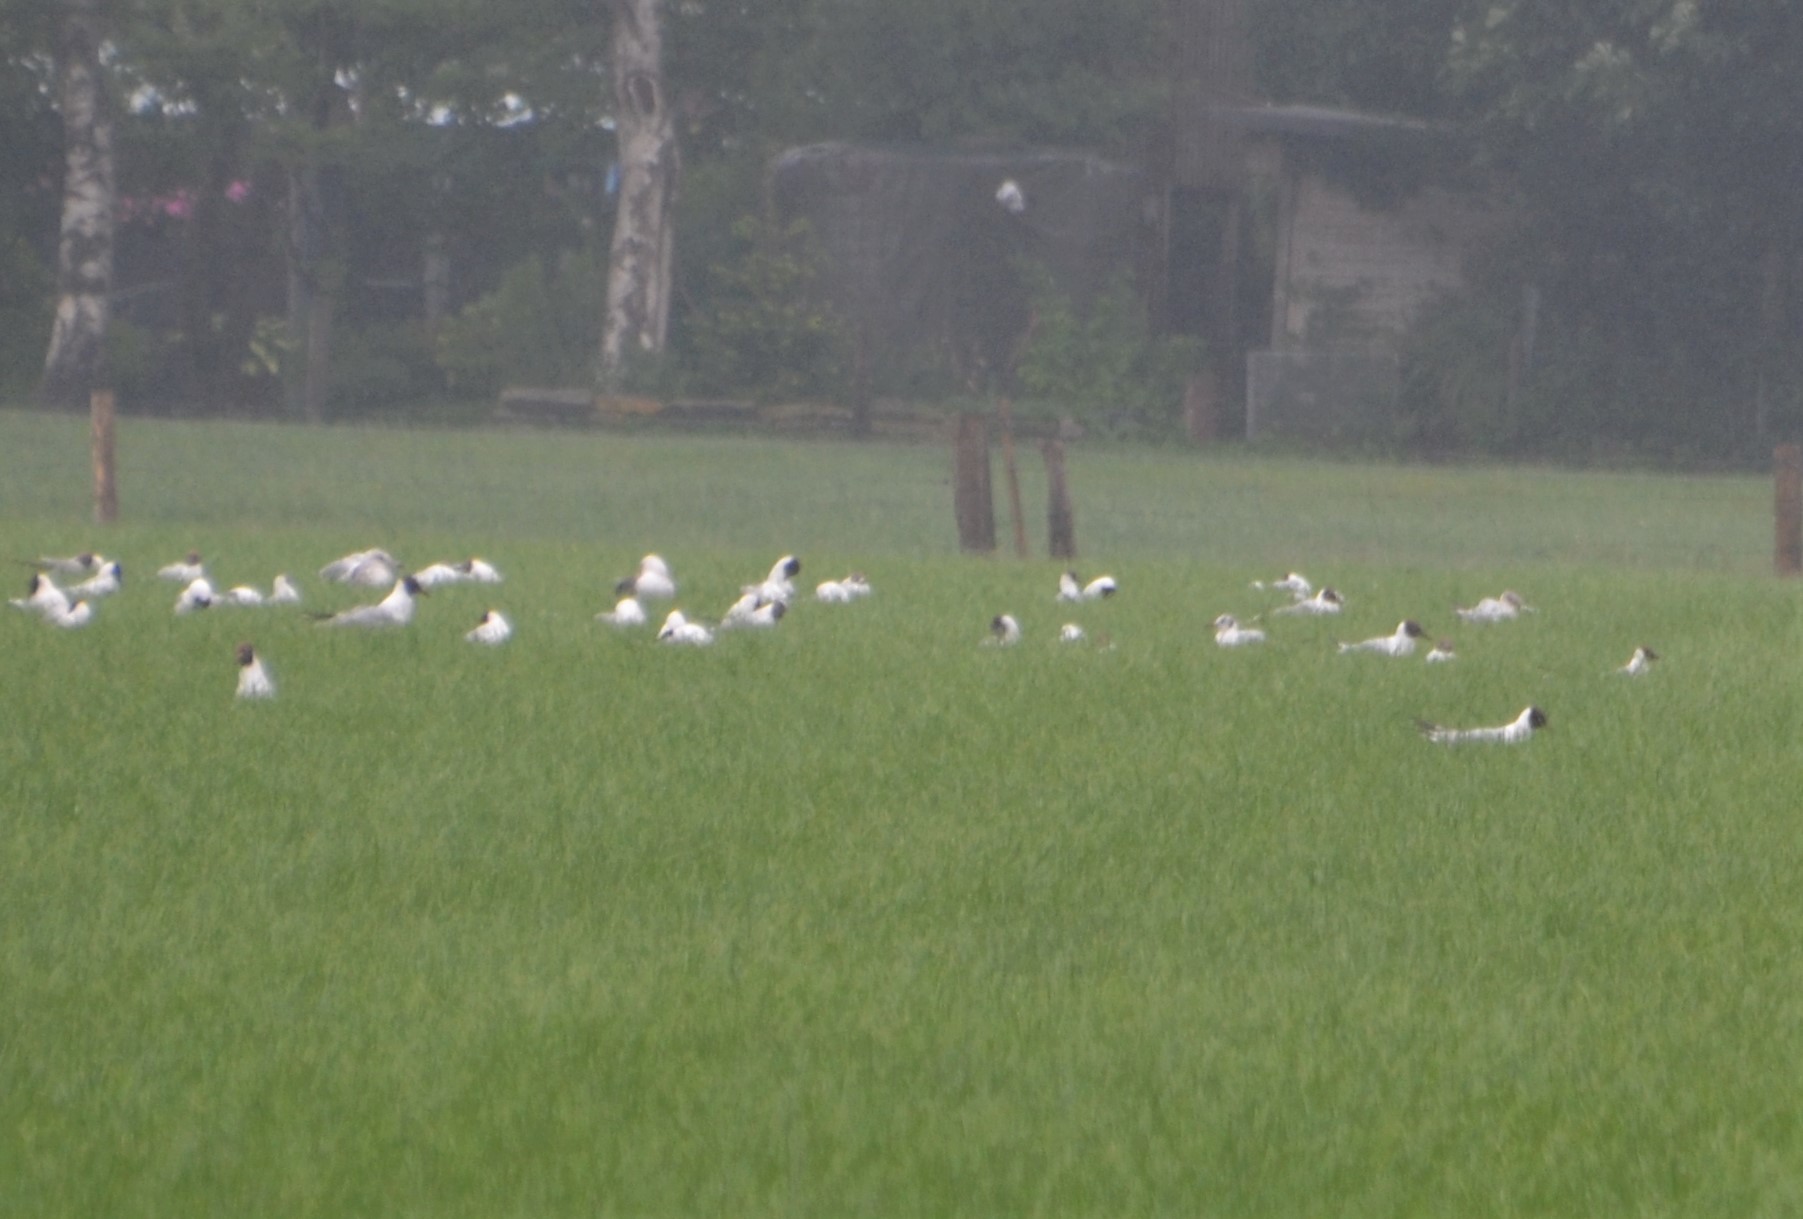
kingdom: Animalia
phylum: Chordata
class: Aves
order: Charadriiformes
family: Laridae
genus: Chroicocephalus
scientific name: Chroicocephalus ridibundus
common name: Black-headed gull
